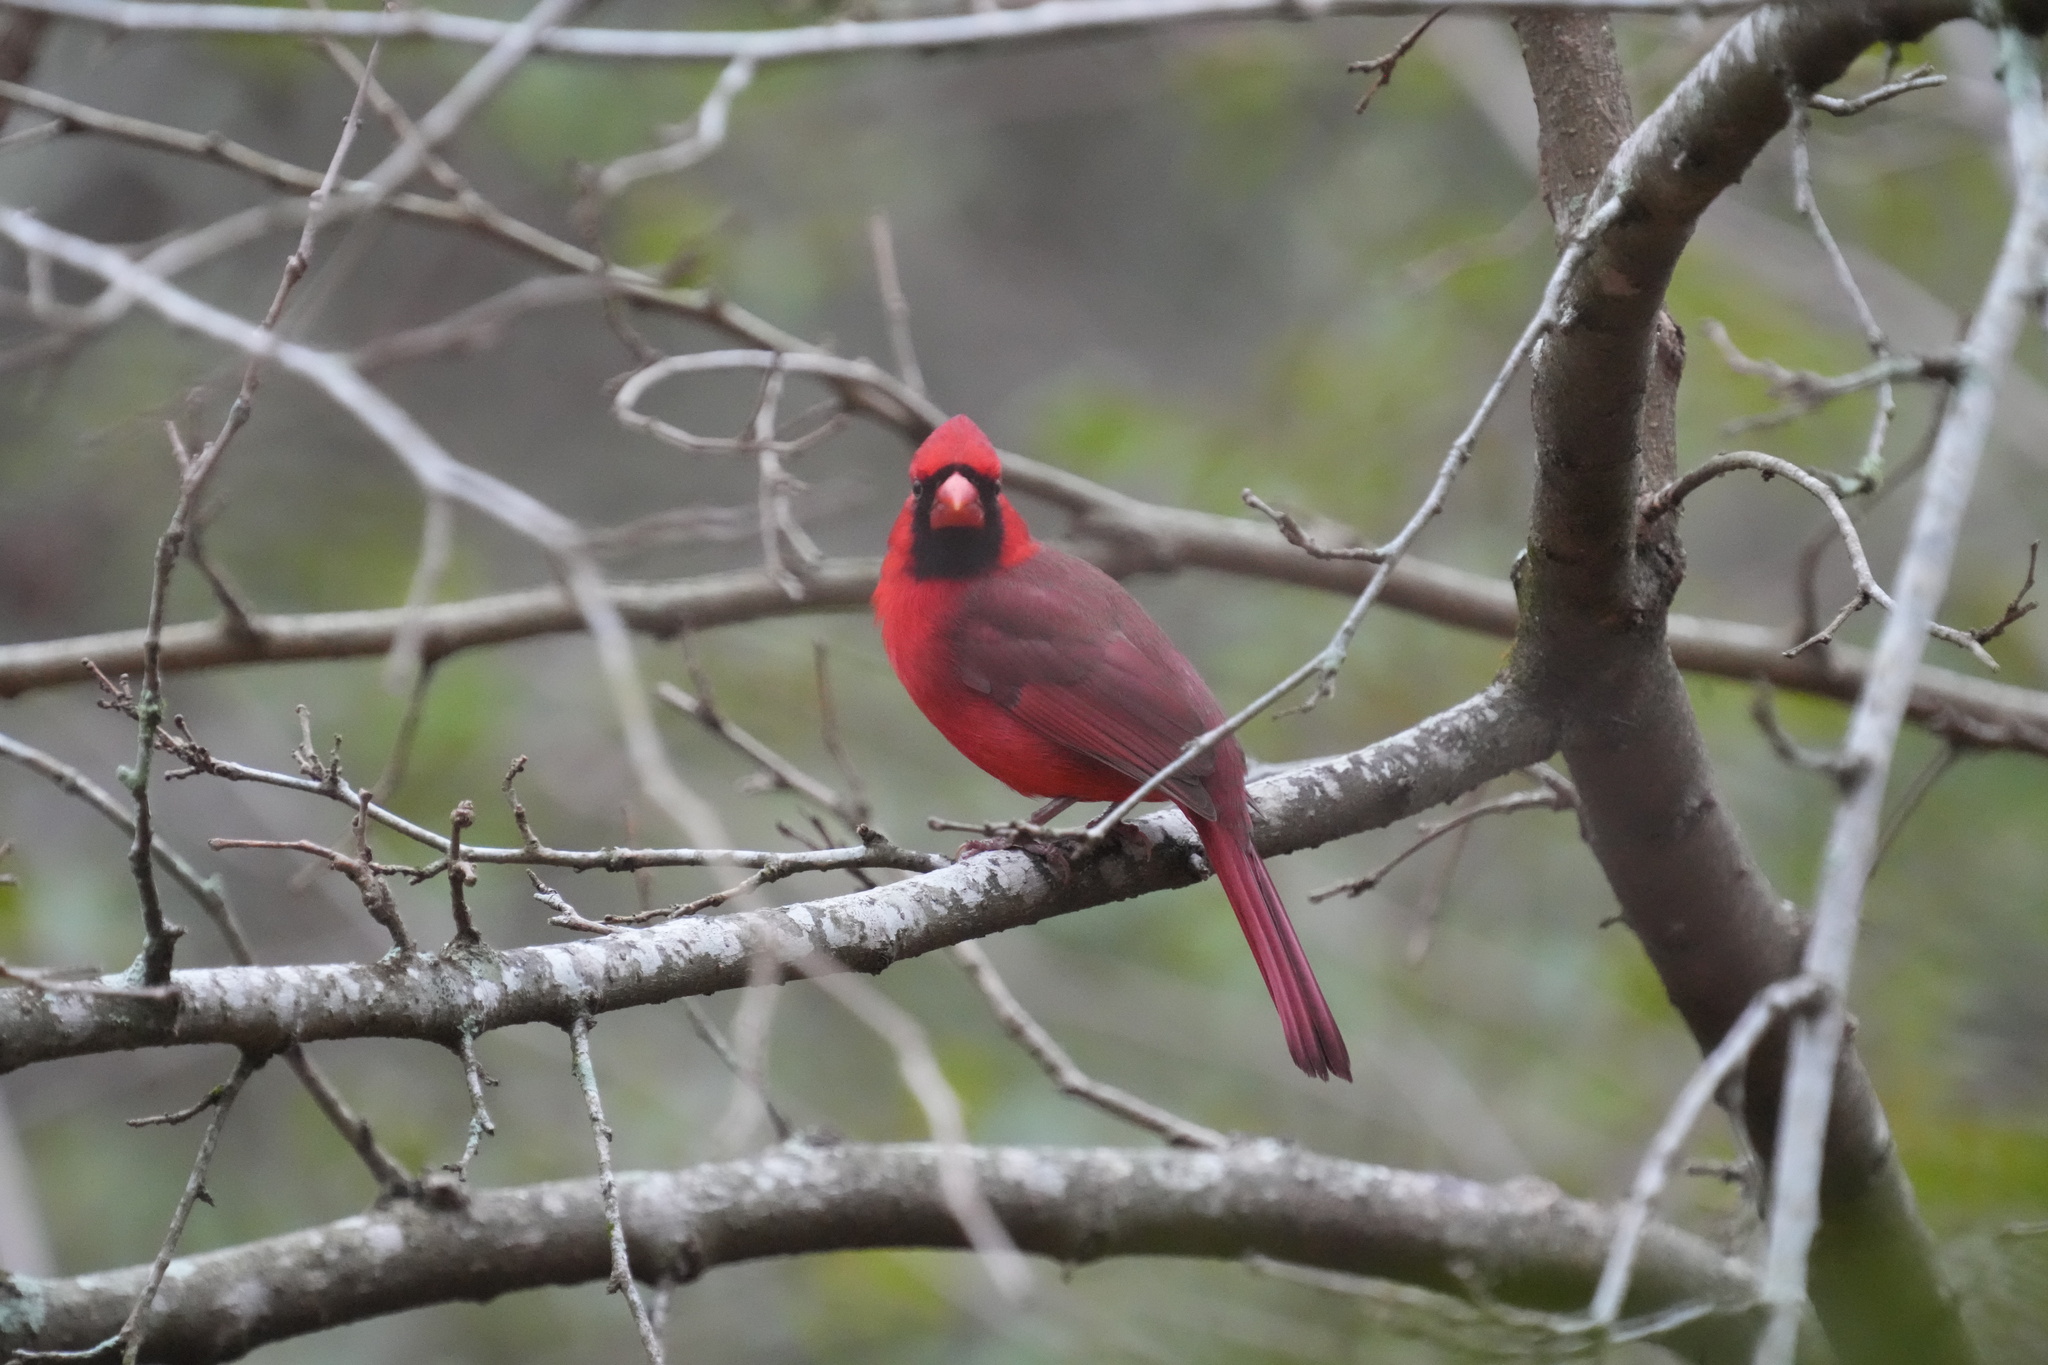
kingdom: Animalia
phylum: Chordata
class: Aves
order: Passeriformes
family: Cardinalidae
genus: Cardinalis
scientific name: Cardinalis cardinalis
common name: Northern cardinal
